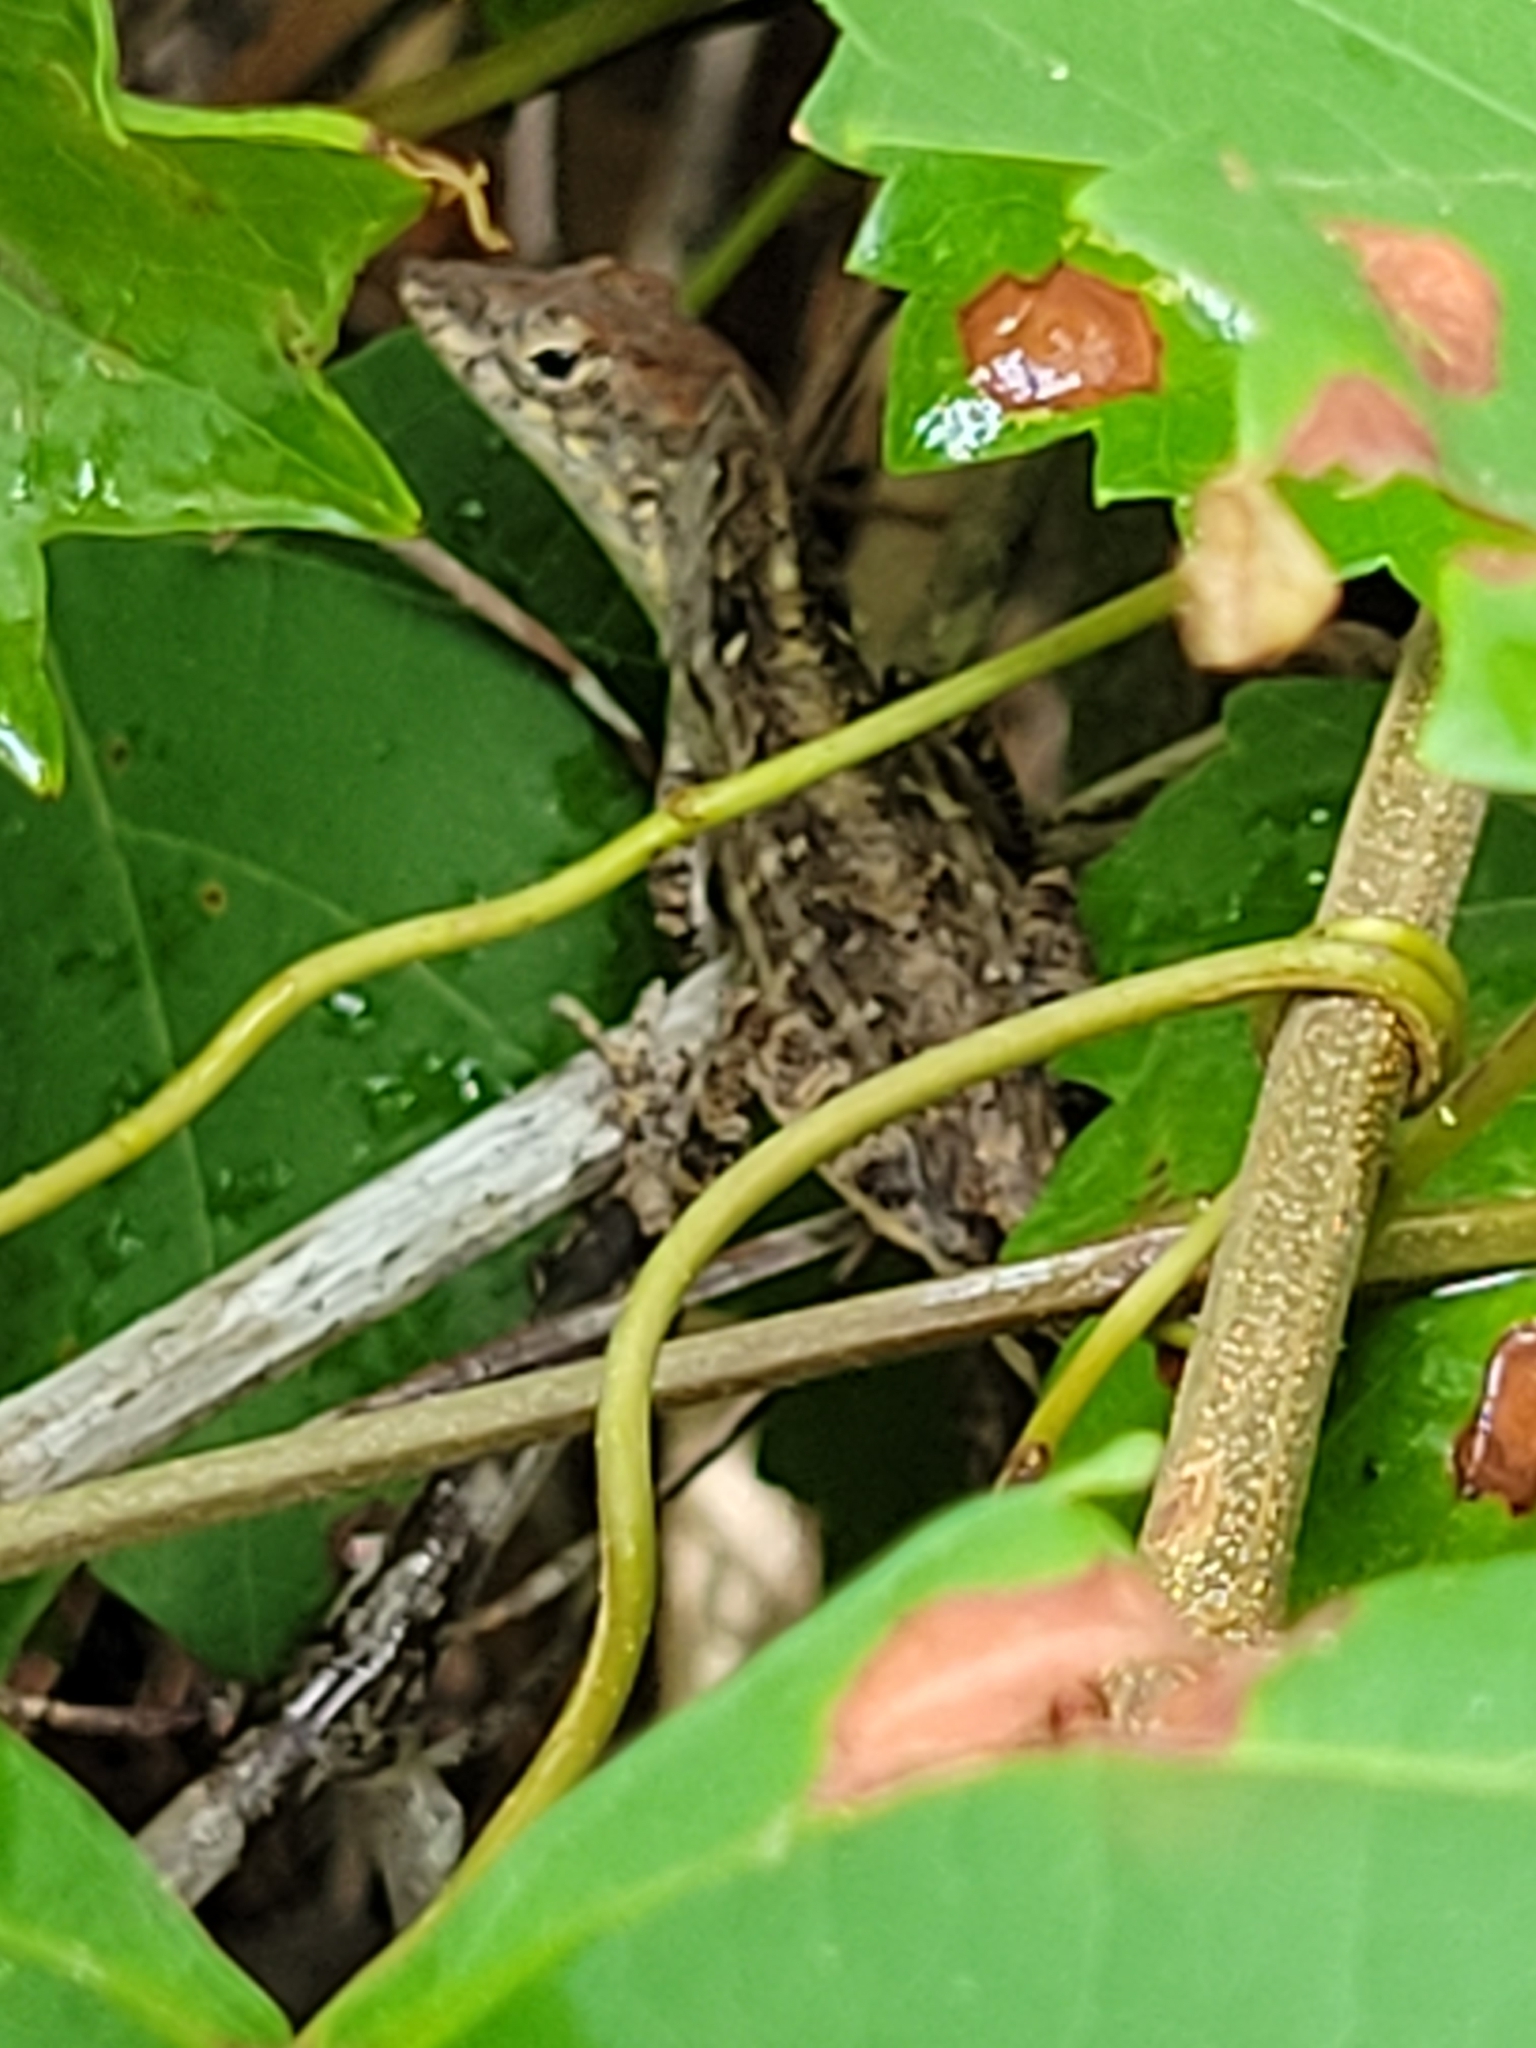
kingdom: Animalia
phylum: Chordata
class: Squamata
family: Dactyloidae
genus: Anolis
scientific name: Anolis sagrei
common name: Brown anole
